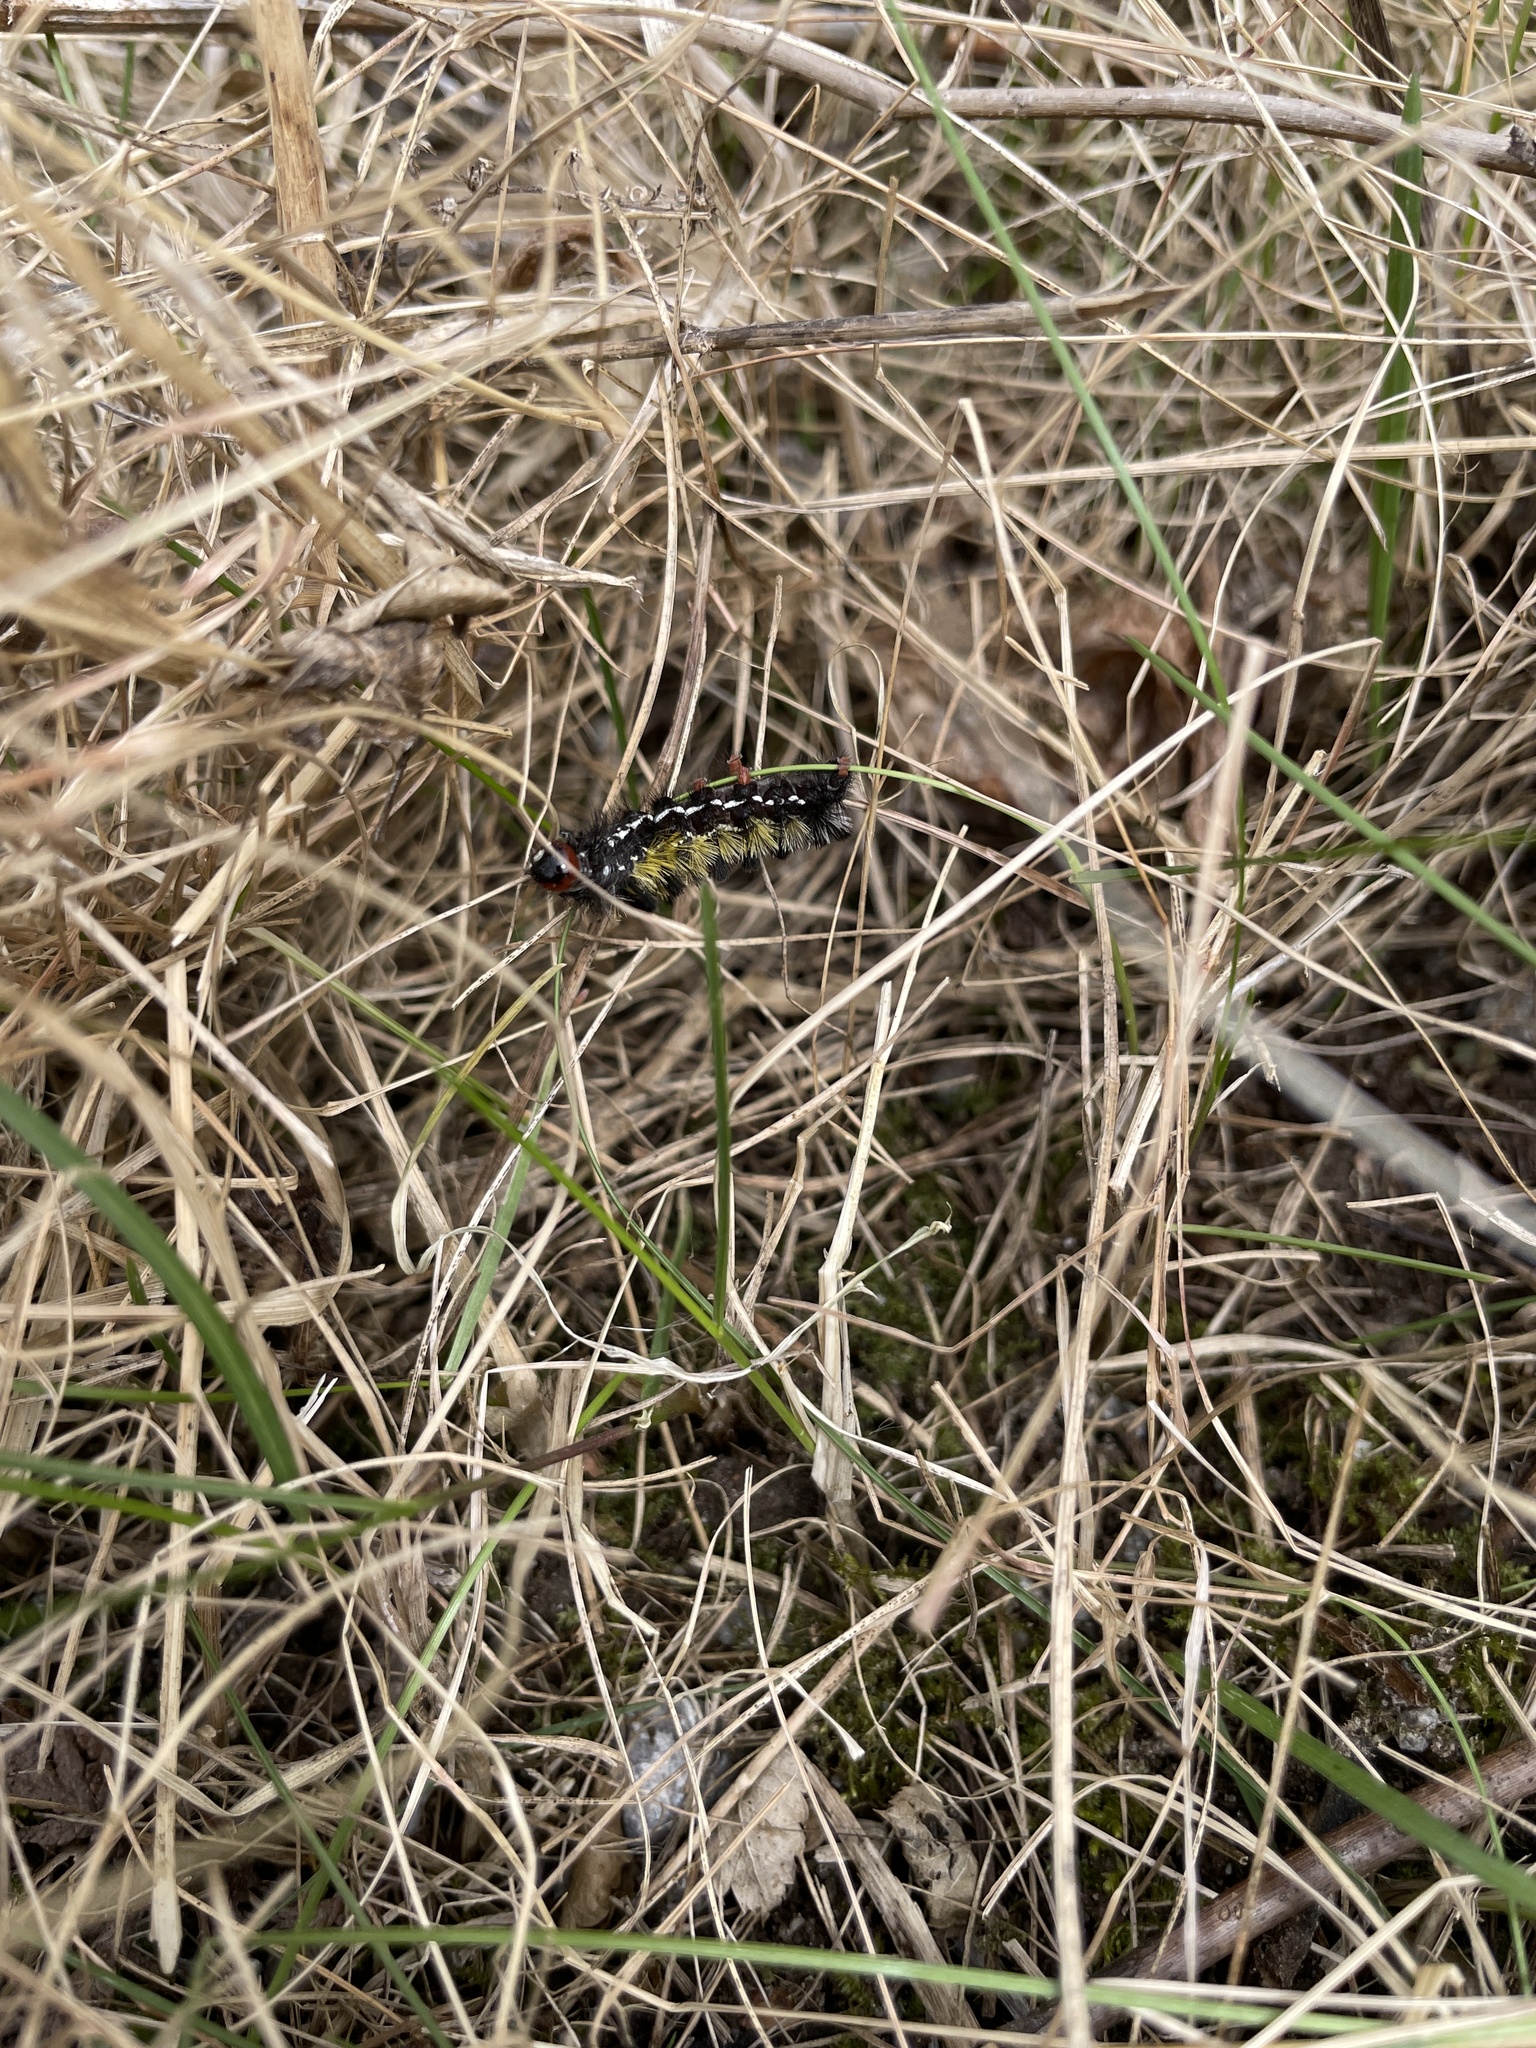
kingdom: Animalia
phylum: Arthropoda
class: Insecta
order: Lepidoptera
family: Erebidae
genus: Ctenucha
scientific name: Ctenucha virginica
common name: Virginia ctenucha moth
